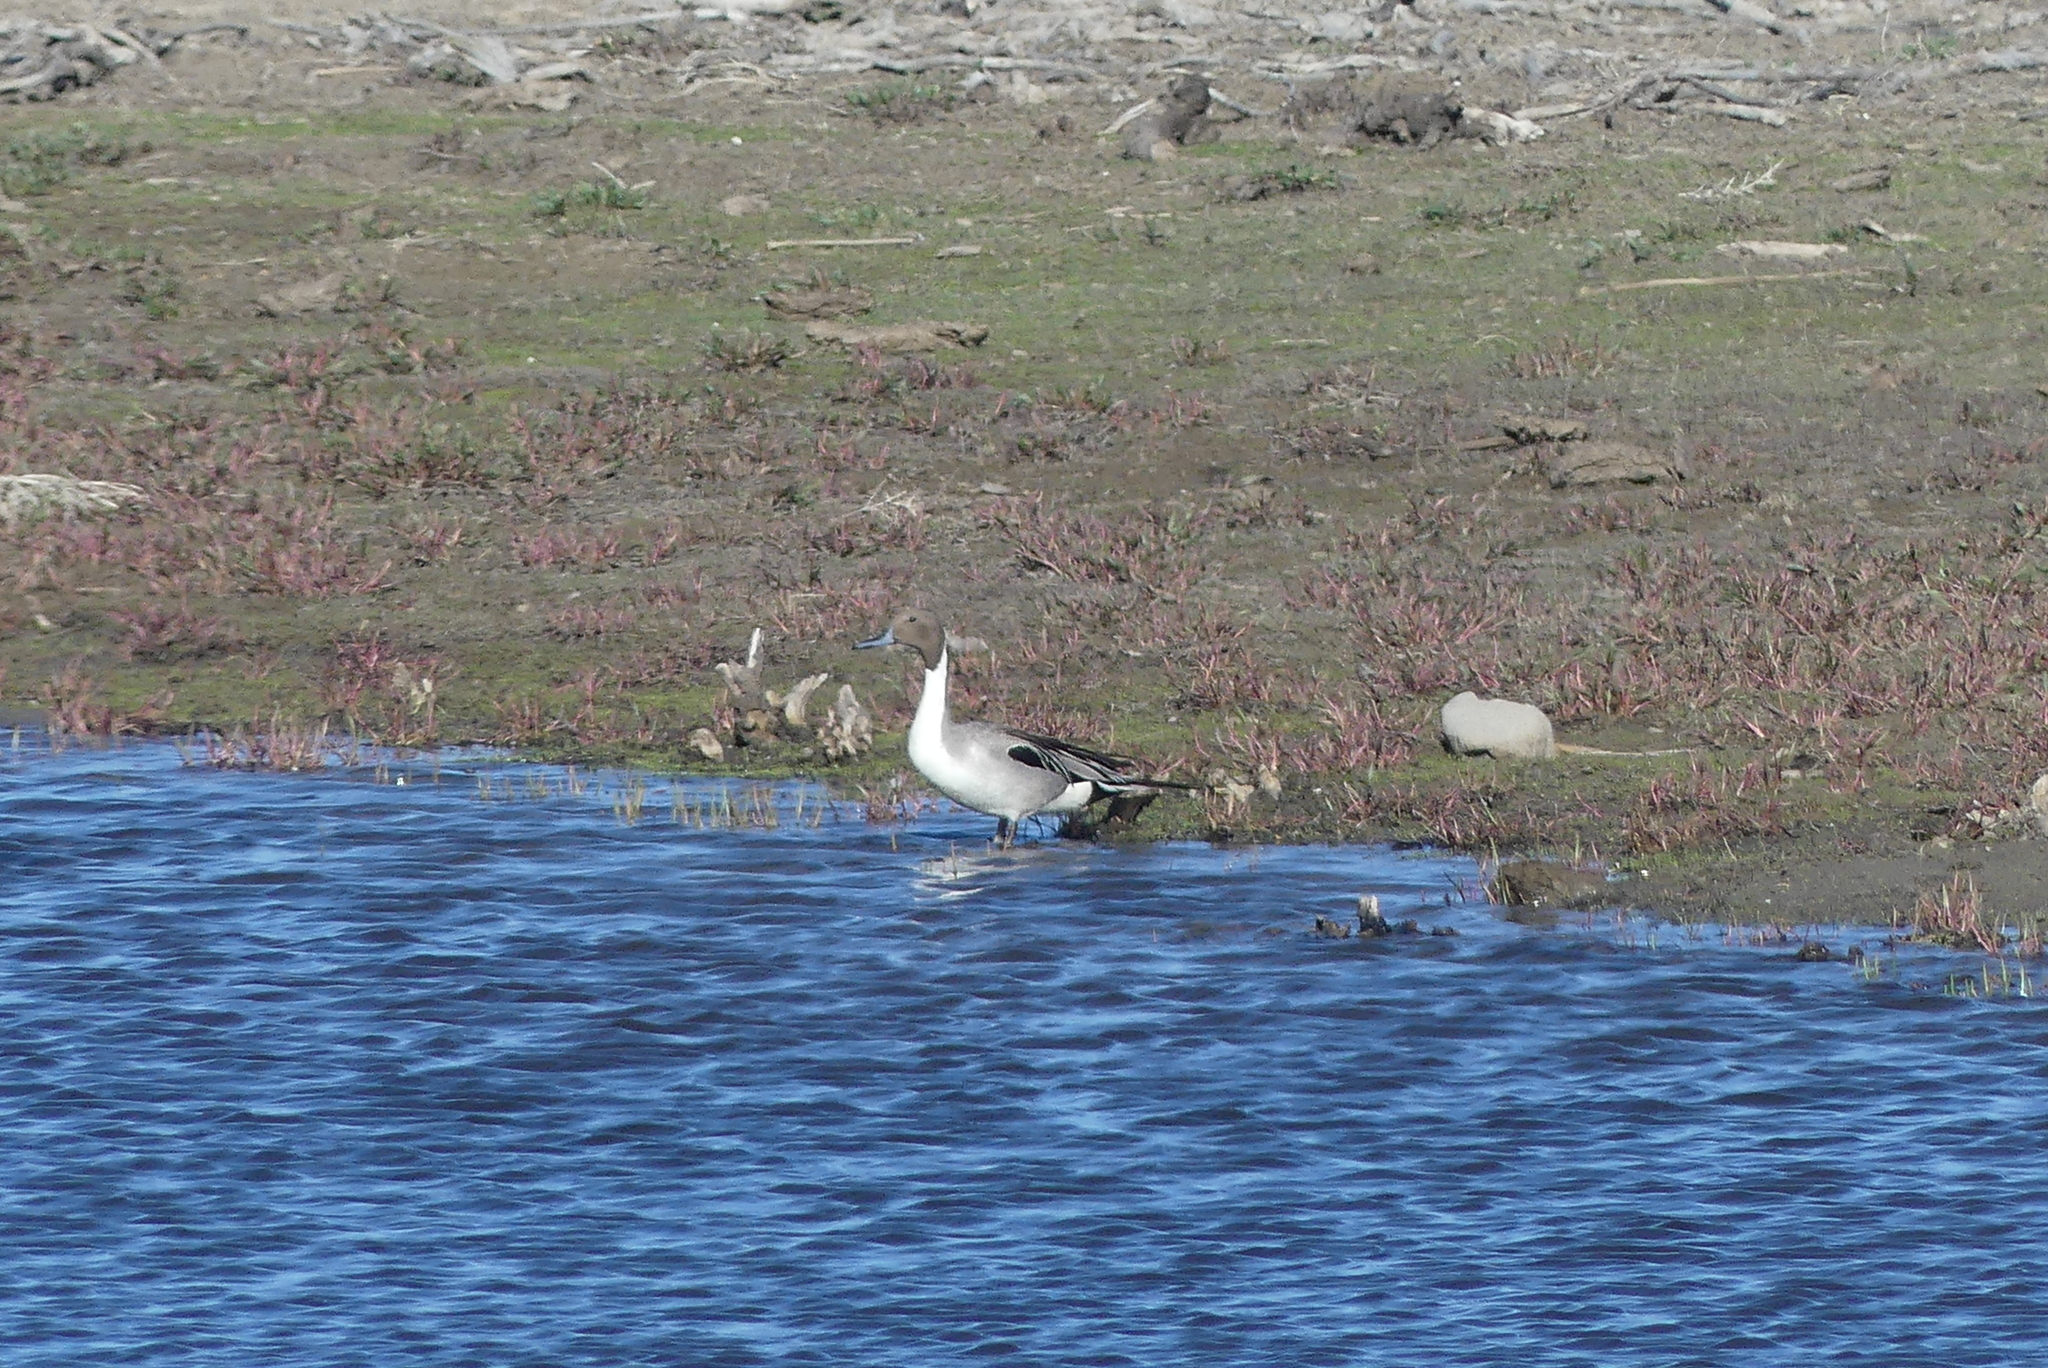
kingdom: Animalia
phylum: Chordata
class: Aves
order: Anseriformes
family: Anatidae
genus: Anas
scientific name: Anas acuta
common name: Northern pintail
